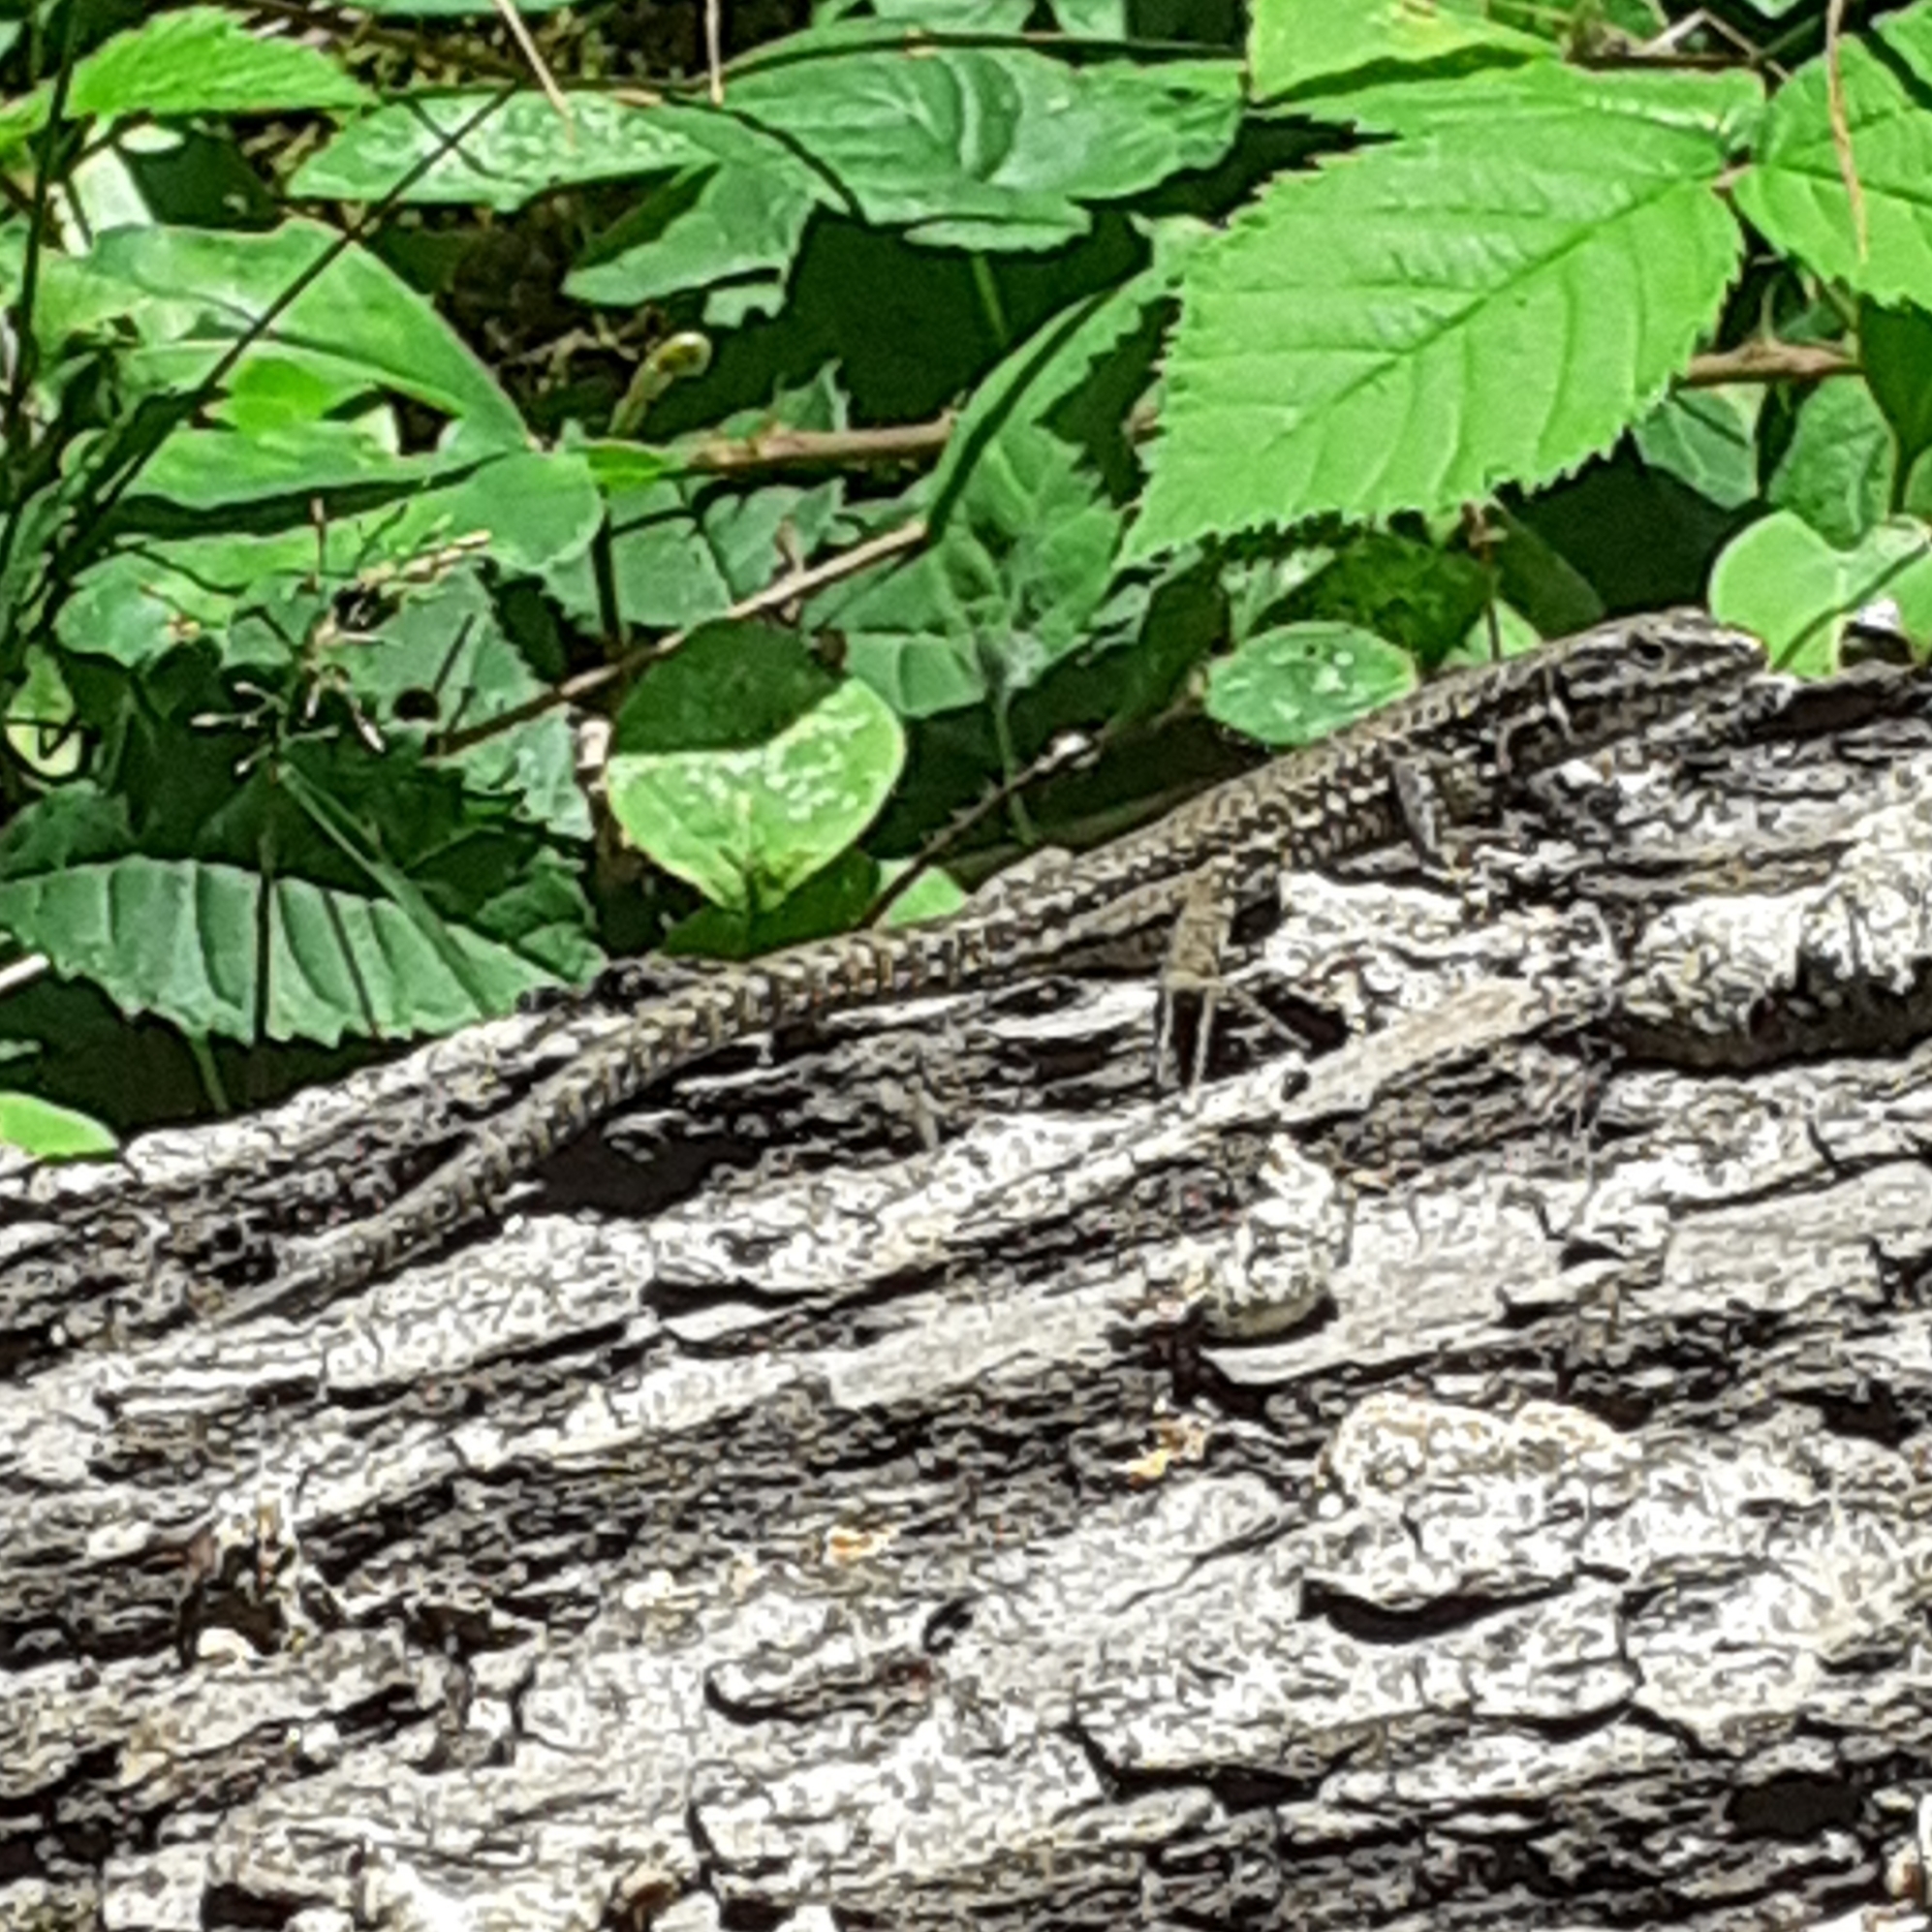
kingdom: Animalia
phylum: Chordata
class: Squamata
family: Lacertidae
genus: Podarcis
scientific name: Podarcis muralis
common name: Common wall lizard
